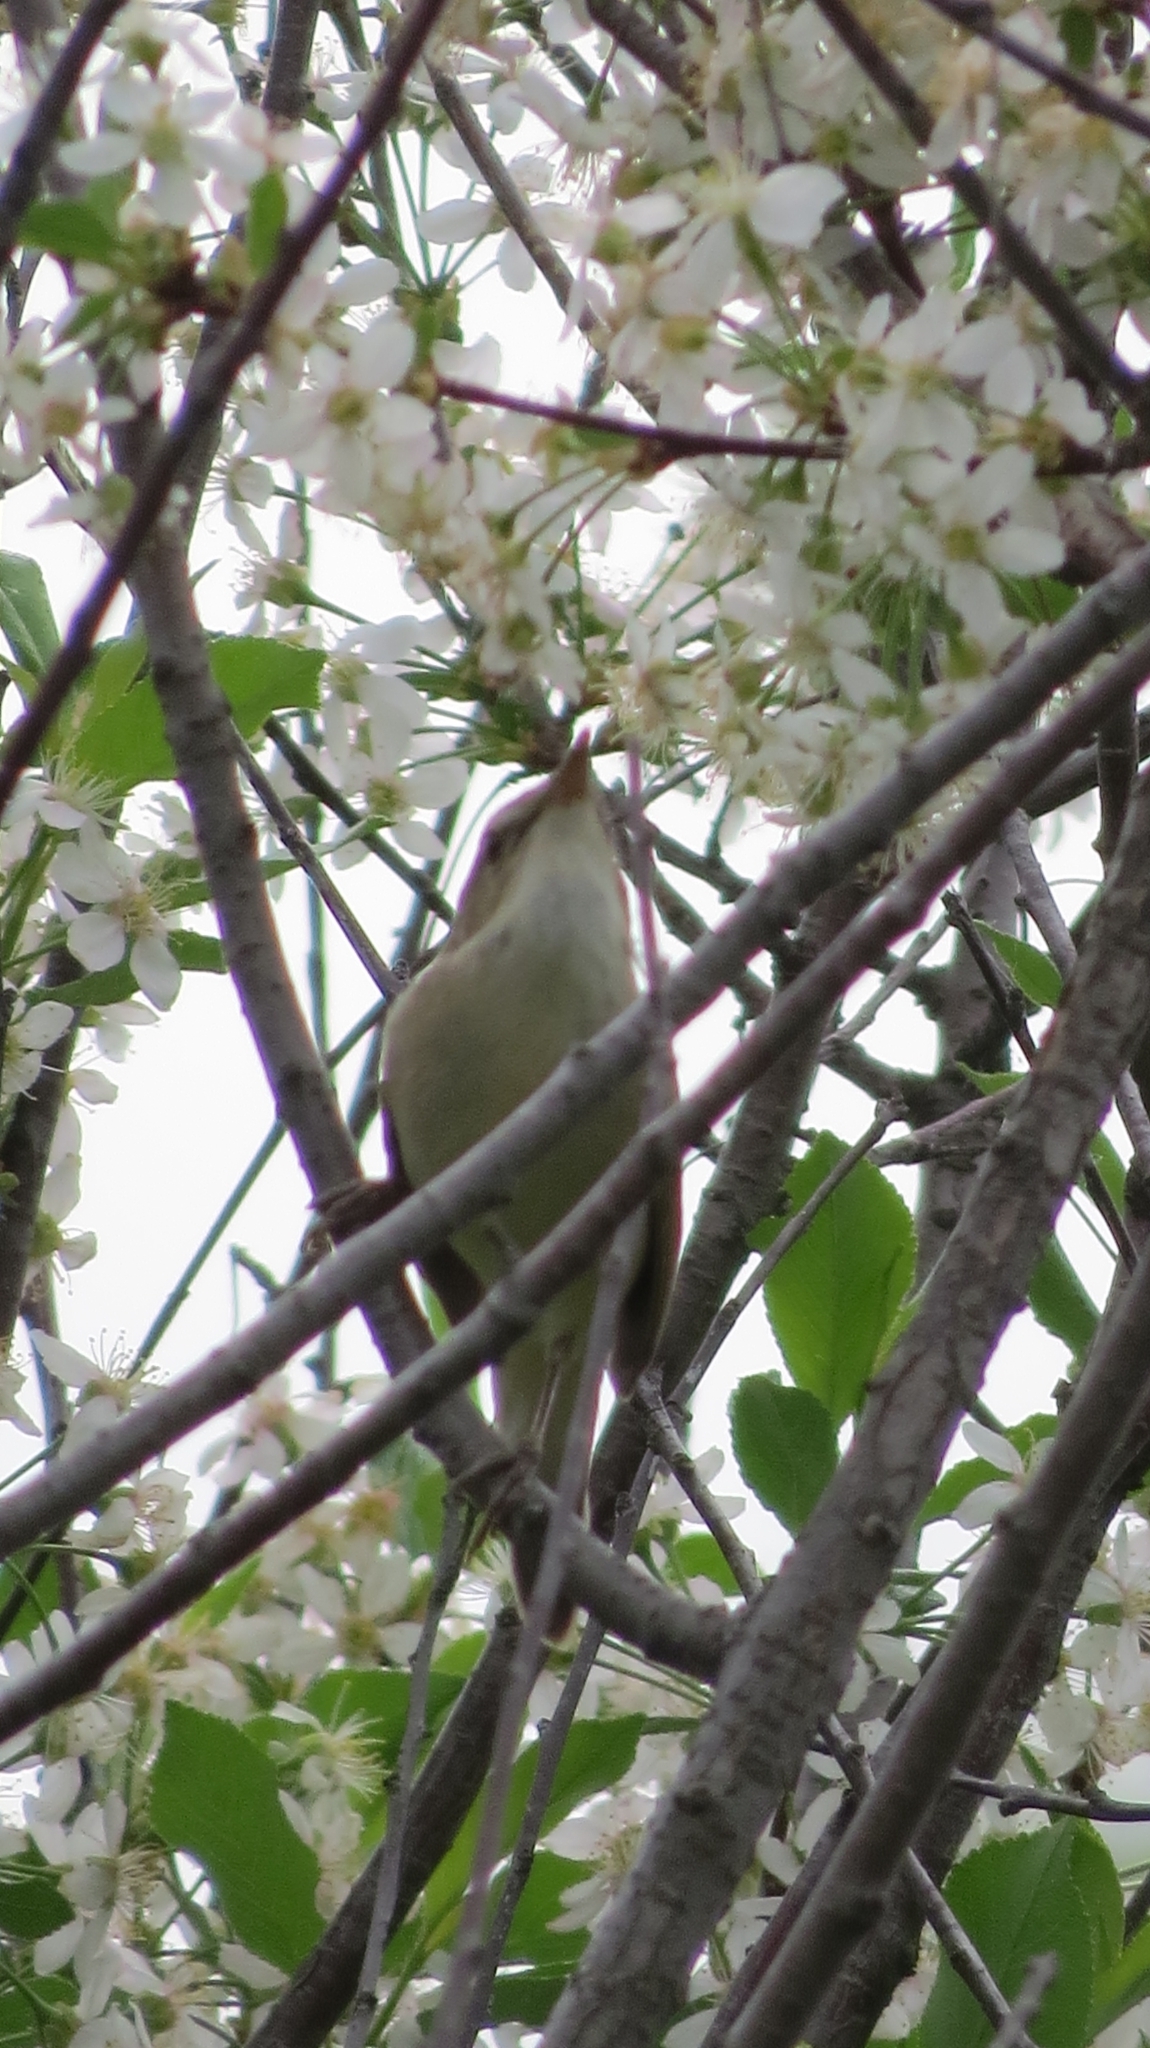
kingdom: Animalia
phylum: Chordata
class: Aves
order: Passeriformes
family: Acrocephalidae
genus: Acrocephalus
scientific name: Acrocephalus dumetorum
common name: Blyth's reed warbler
